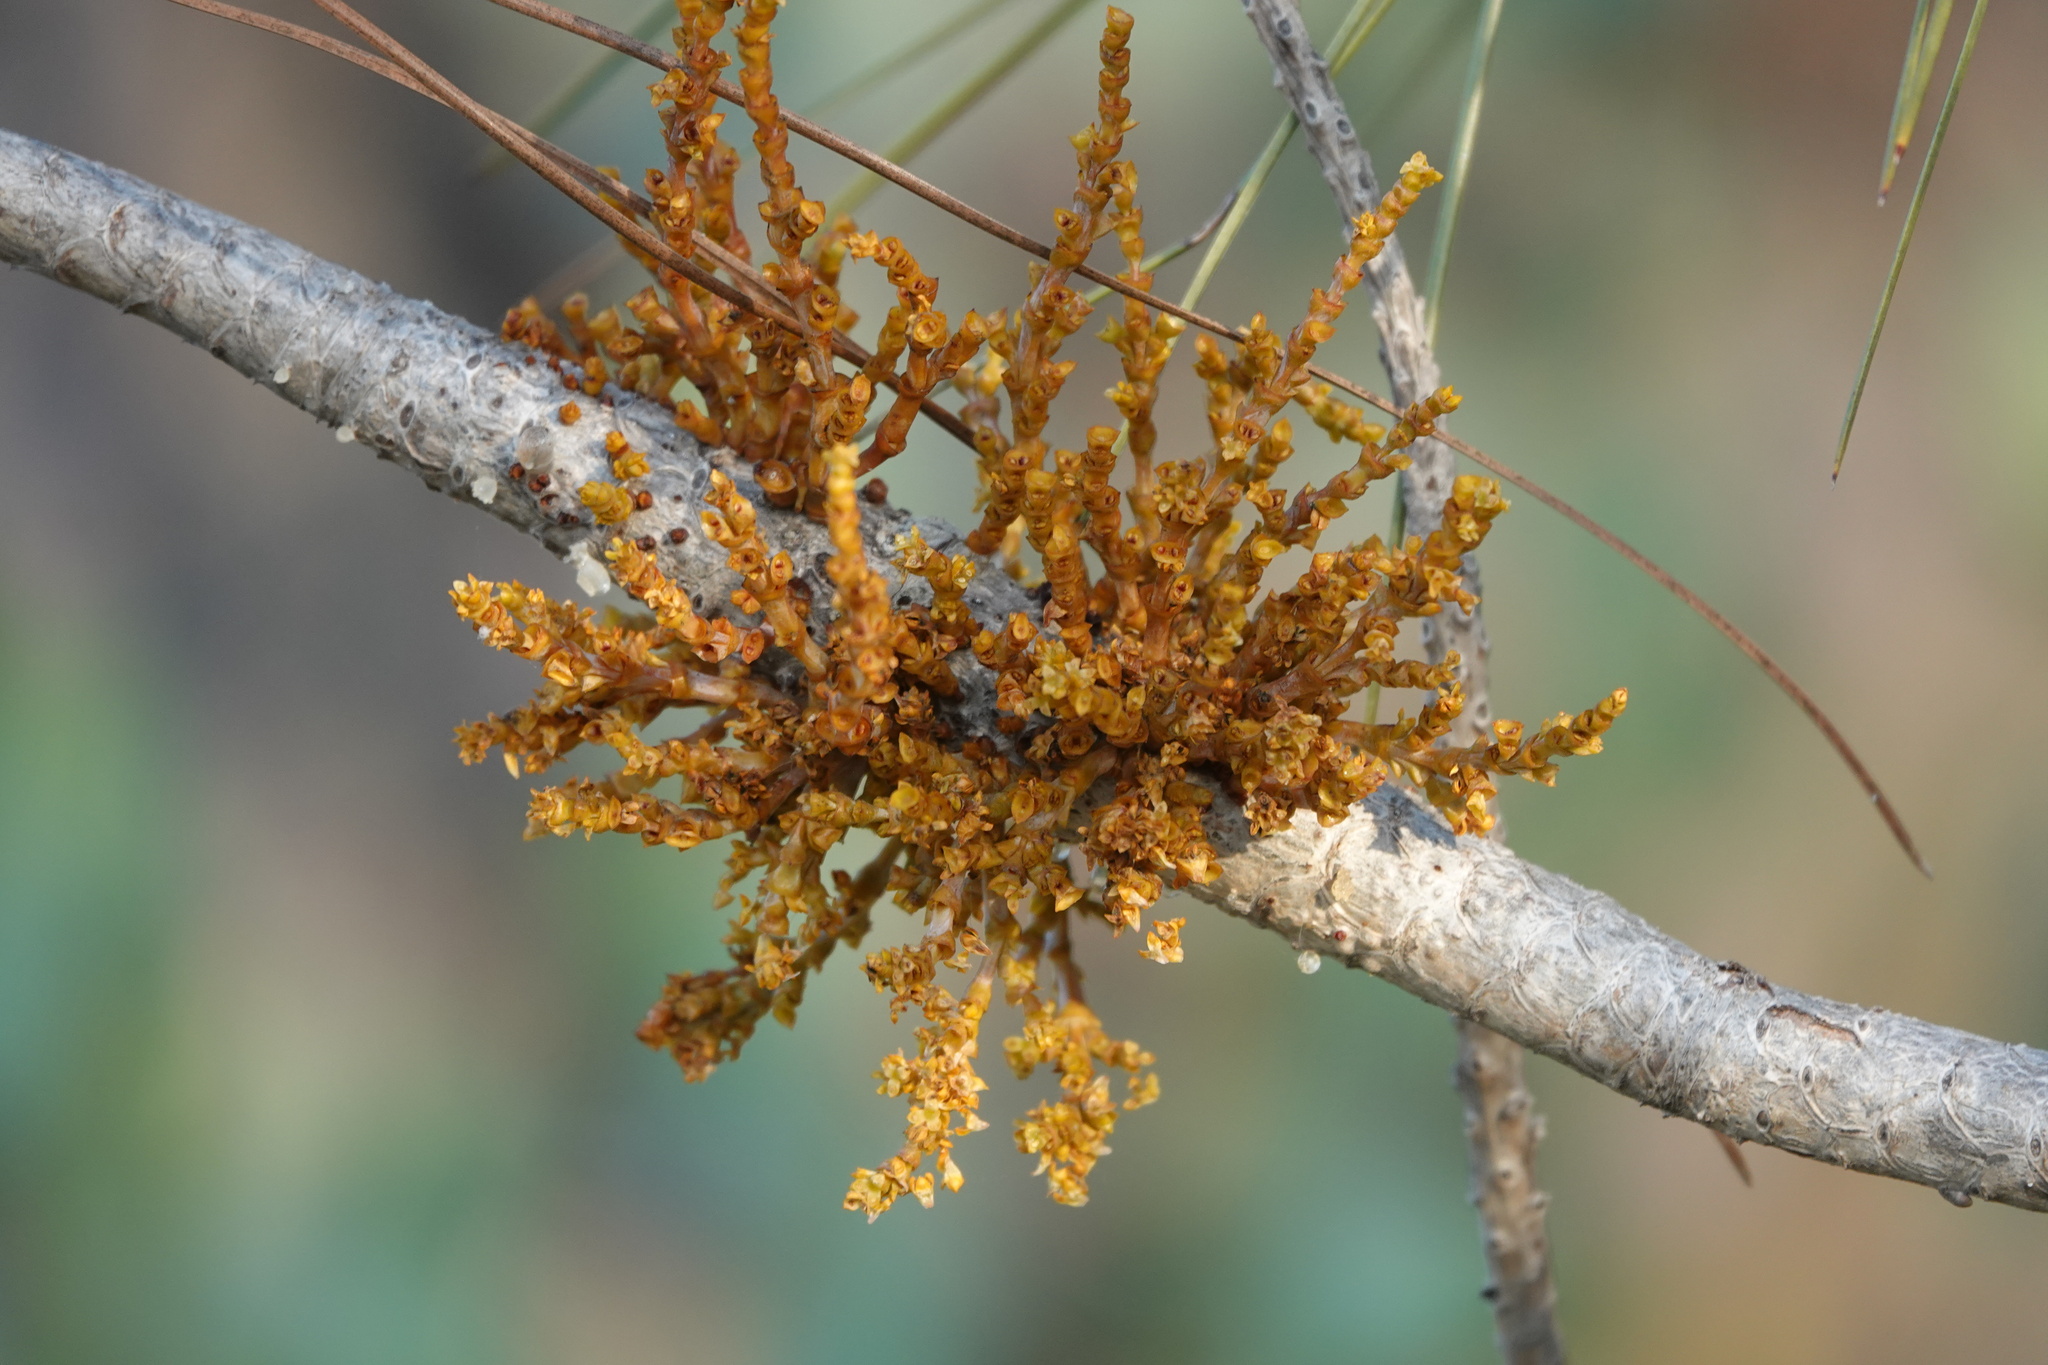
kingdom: Plantae
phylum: Tracheophyta
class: Magnoliopsida
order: Santalales
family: Viscaceae
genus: Arceuthobium
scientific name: Arceuthobium campylopodum
